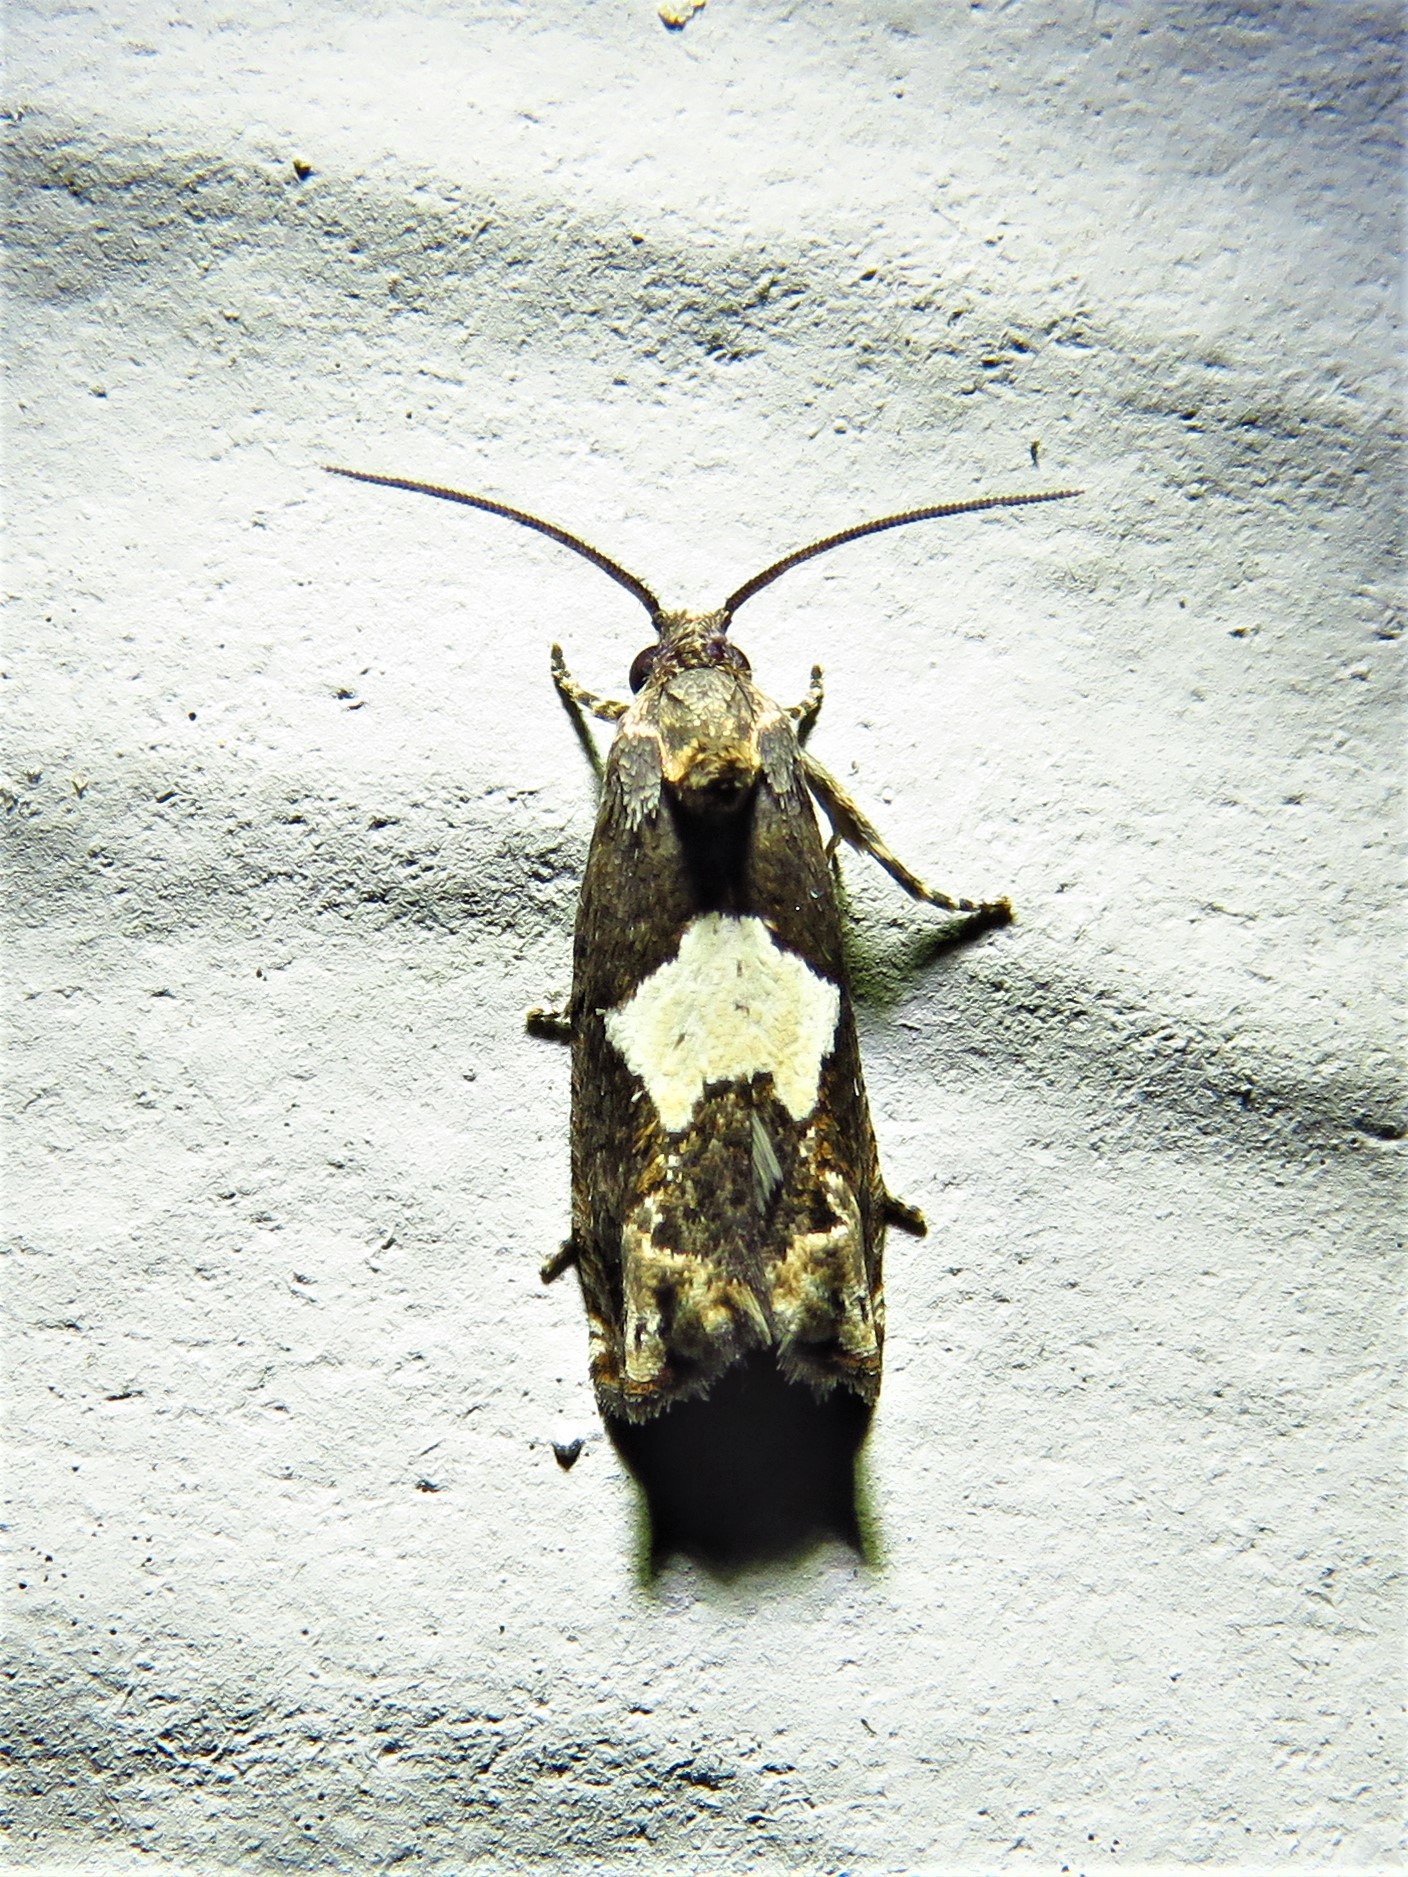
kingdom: Animalia
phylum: Arthropoda
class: Insecta
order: Lepidoptera
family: Tortricidae
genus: Epiblema
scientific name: Epiblema otiosana
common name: Bidens borer moth
